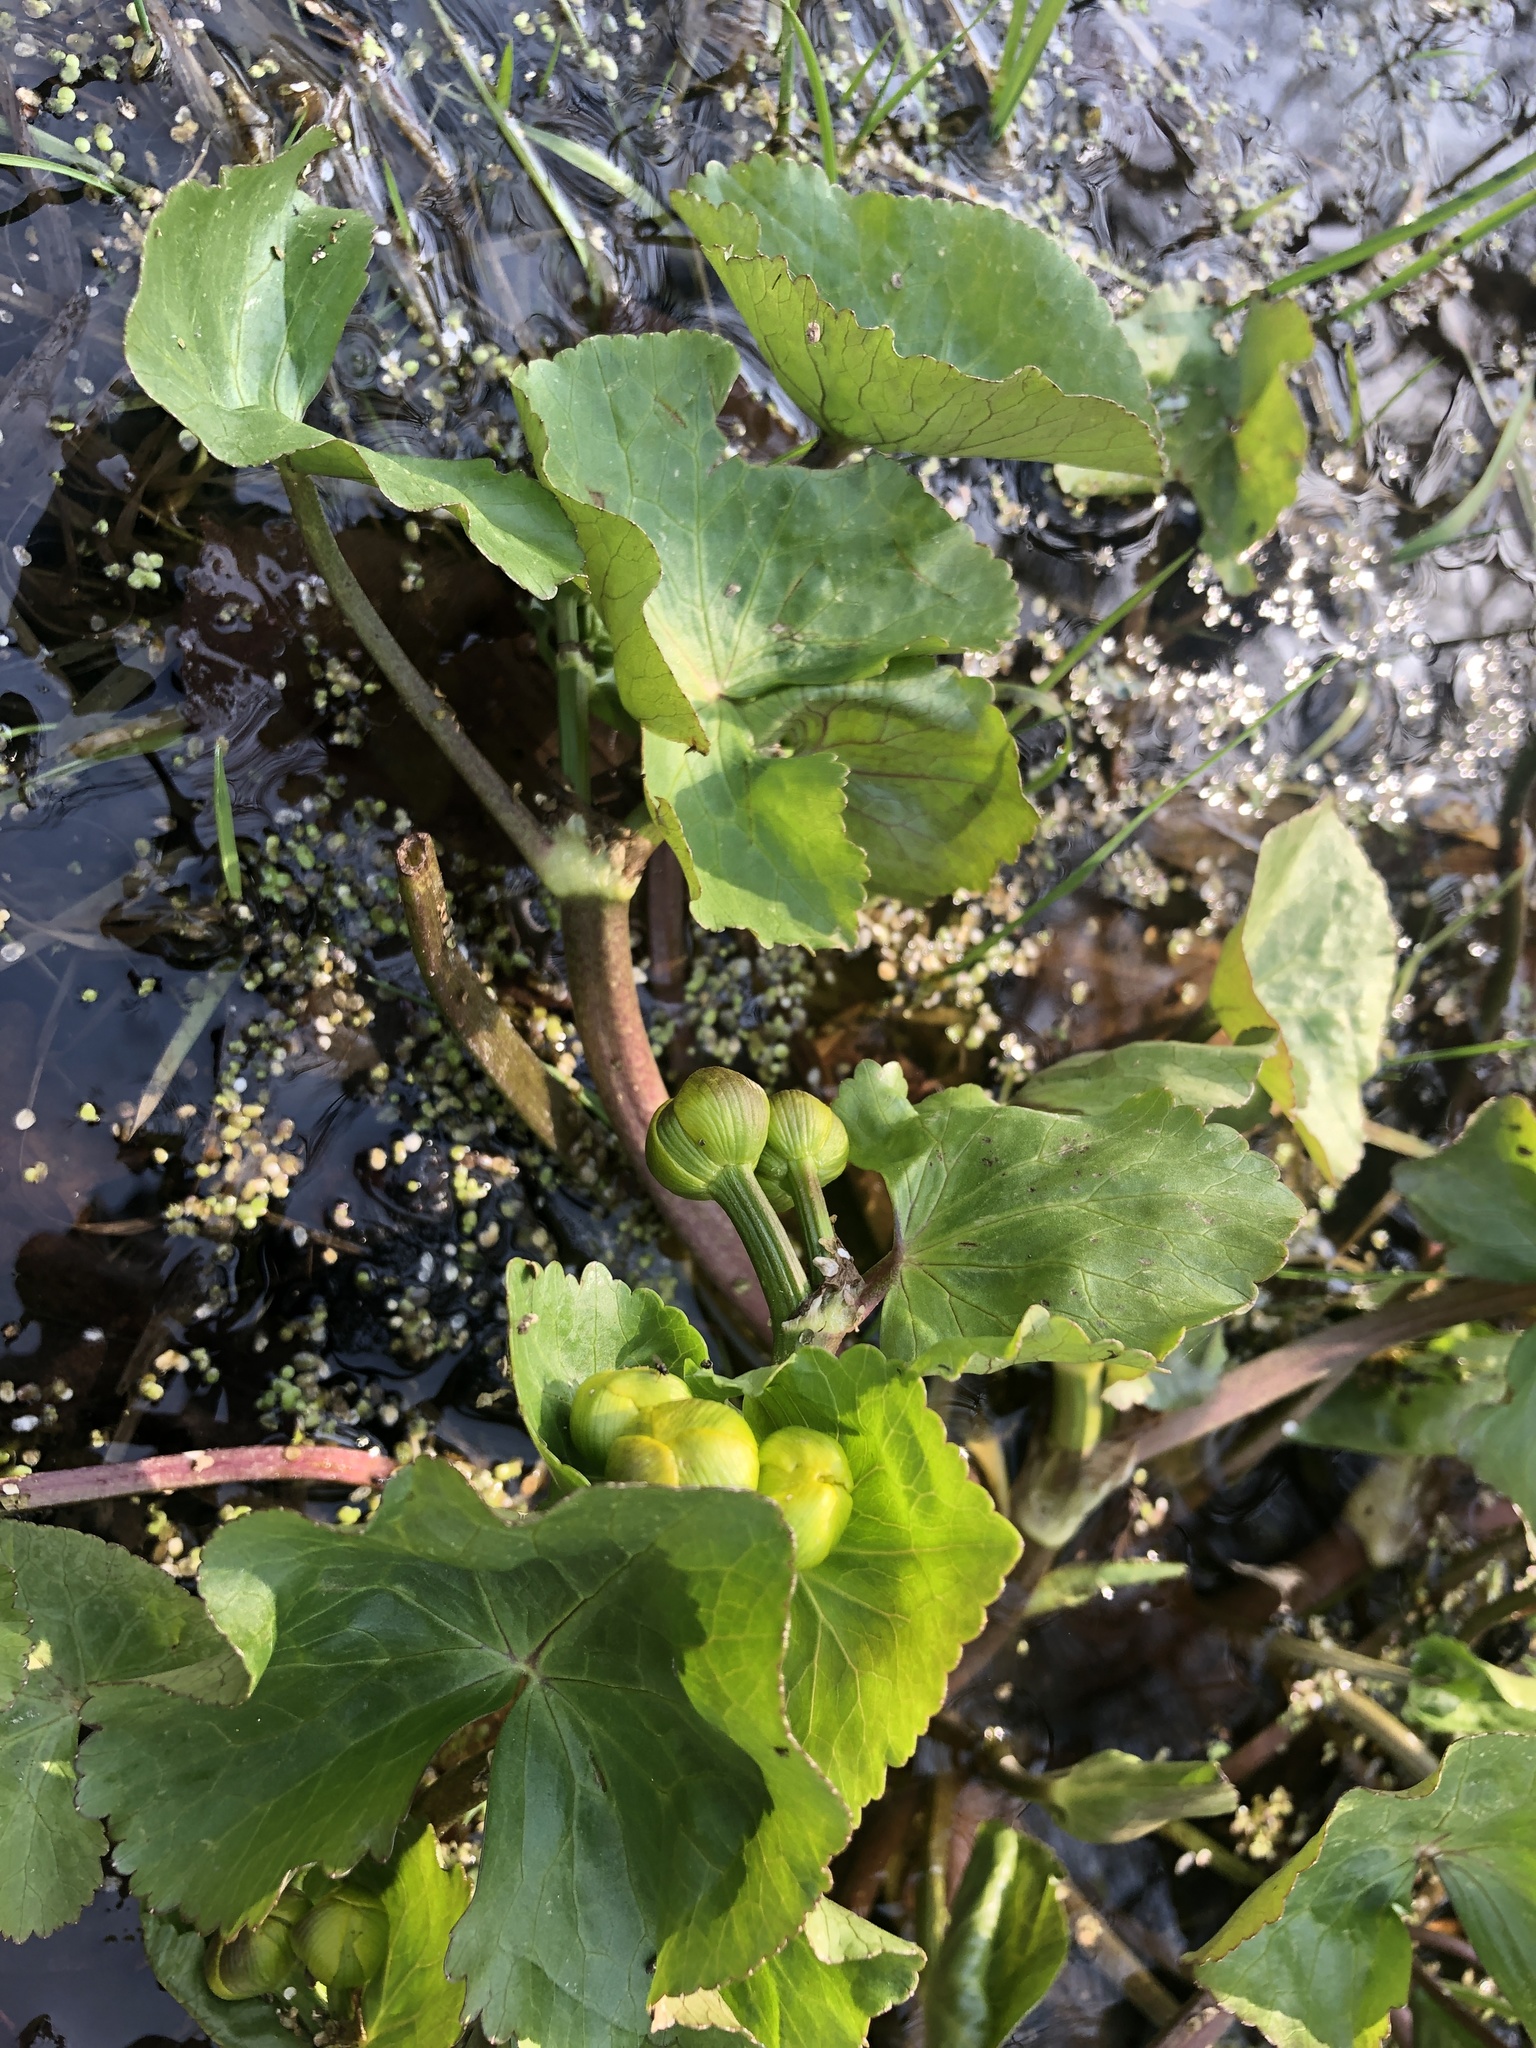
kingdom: Plantae
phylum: Tracheophyta
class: Magnoliopsida
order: Ranunculales
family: Ranunculaceae
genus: Caltha
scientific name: Caltha palustris
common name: Marsh marigold
